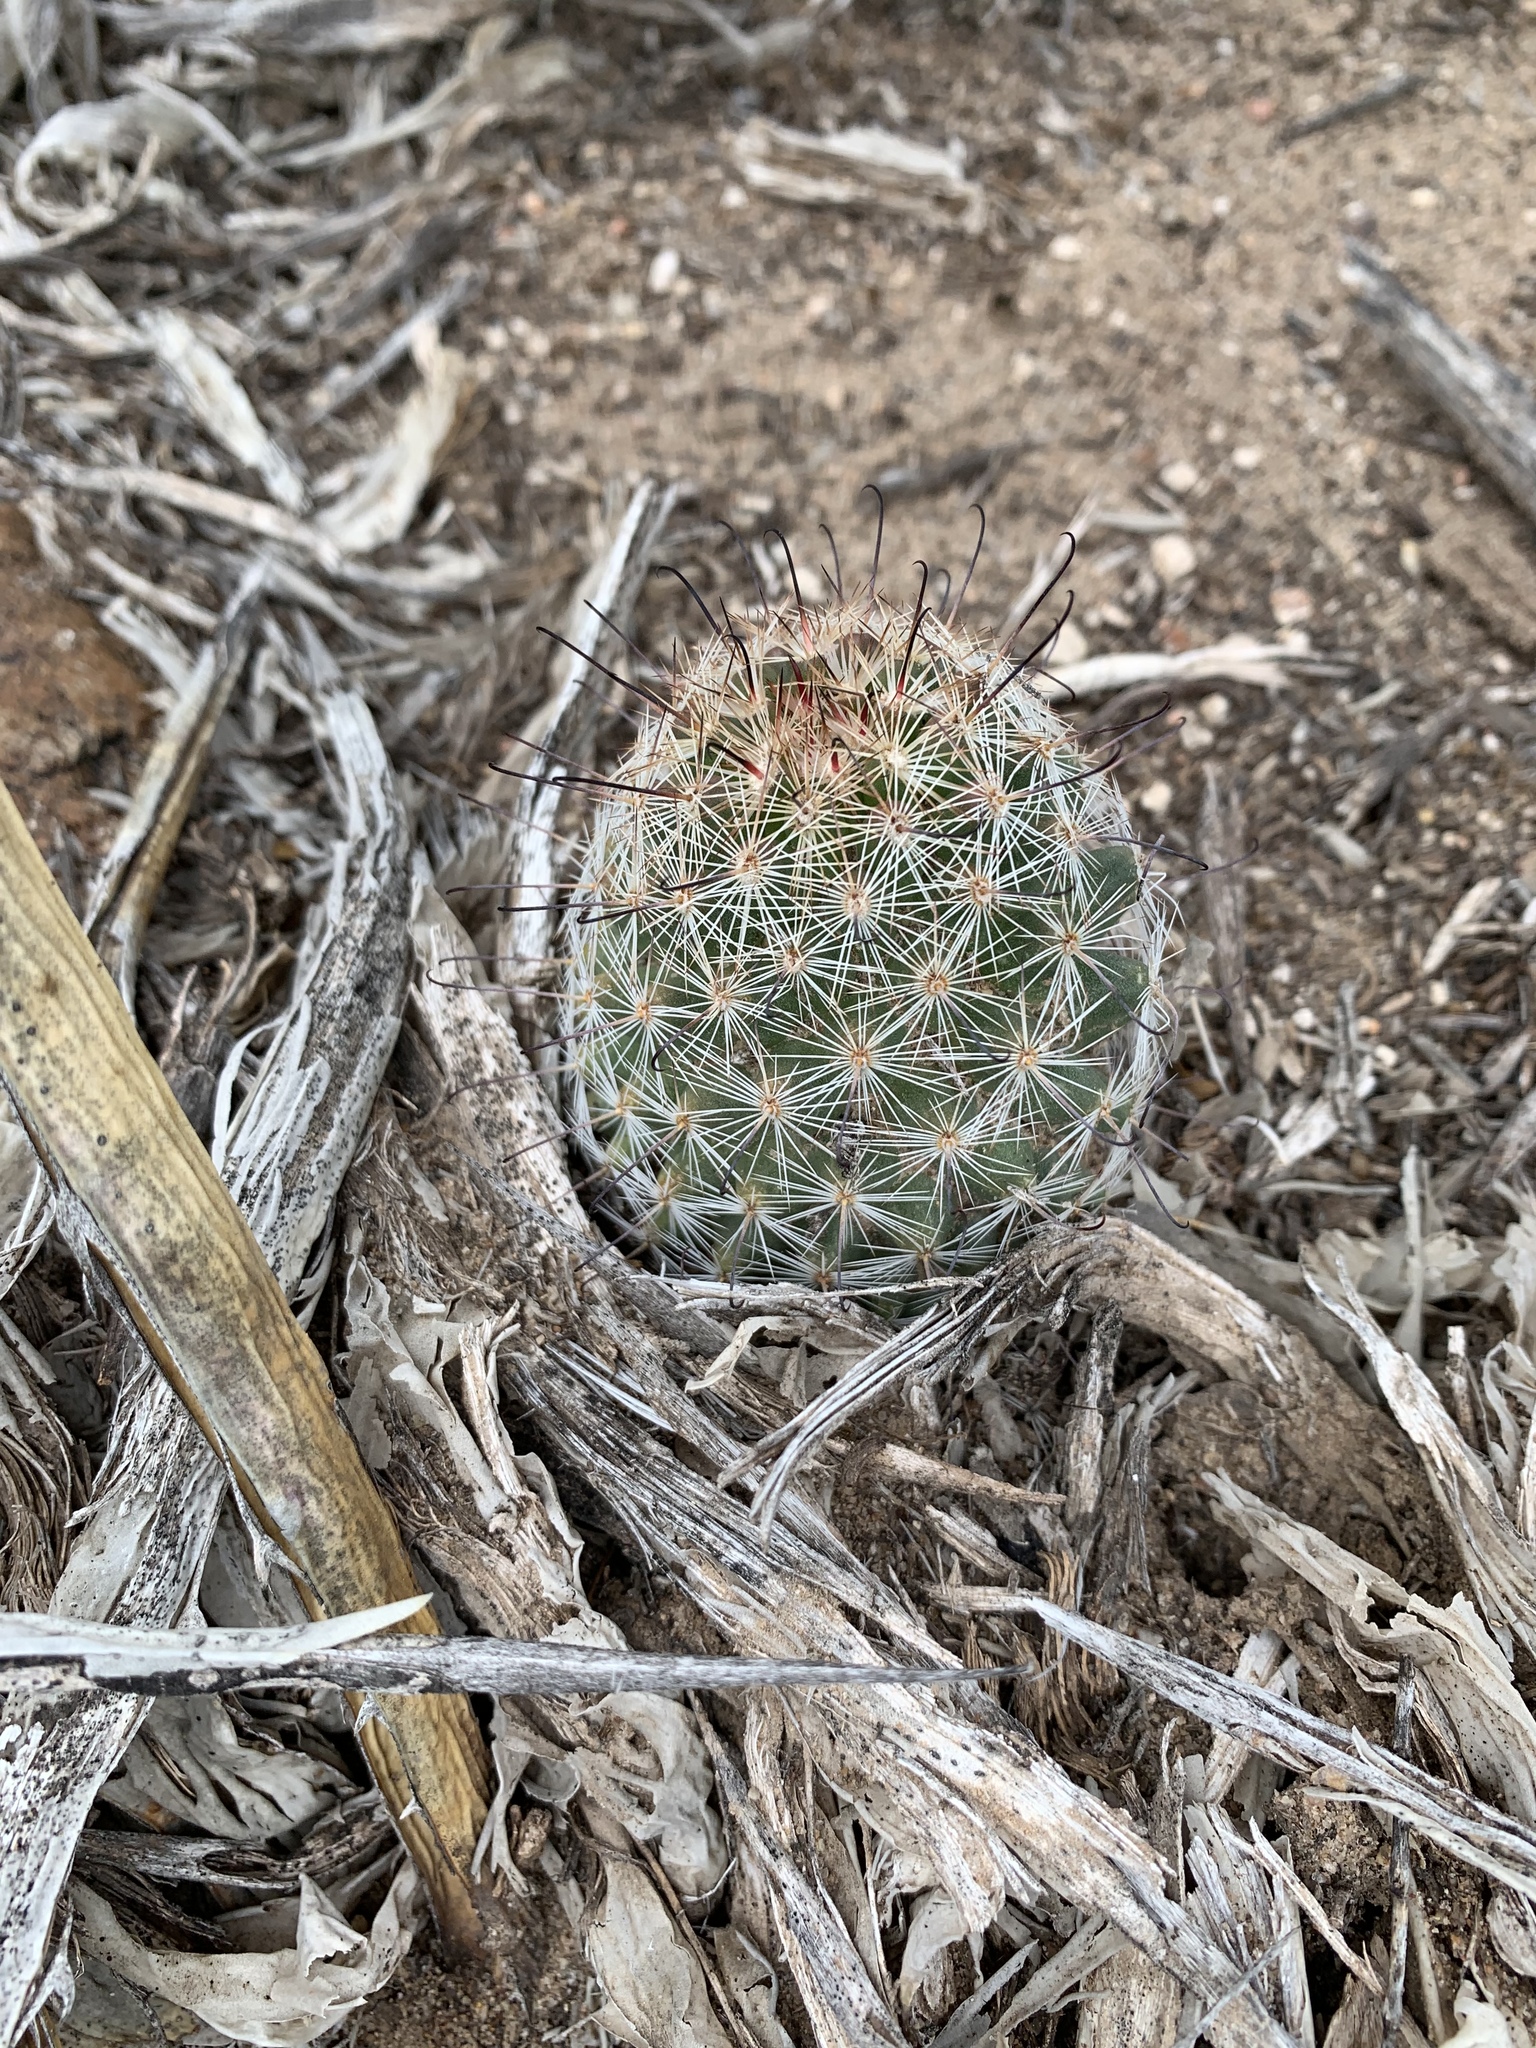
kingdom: Plantae
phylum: Tracheophyta
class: Magnoliopsida
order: Caryophyllales
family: Cactaceae
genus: Cochemiea
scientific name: Cochemiea grahamii
